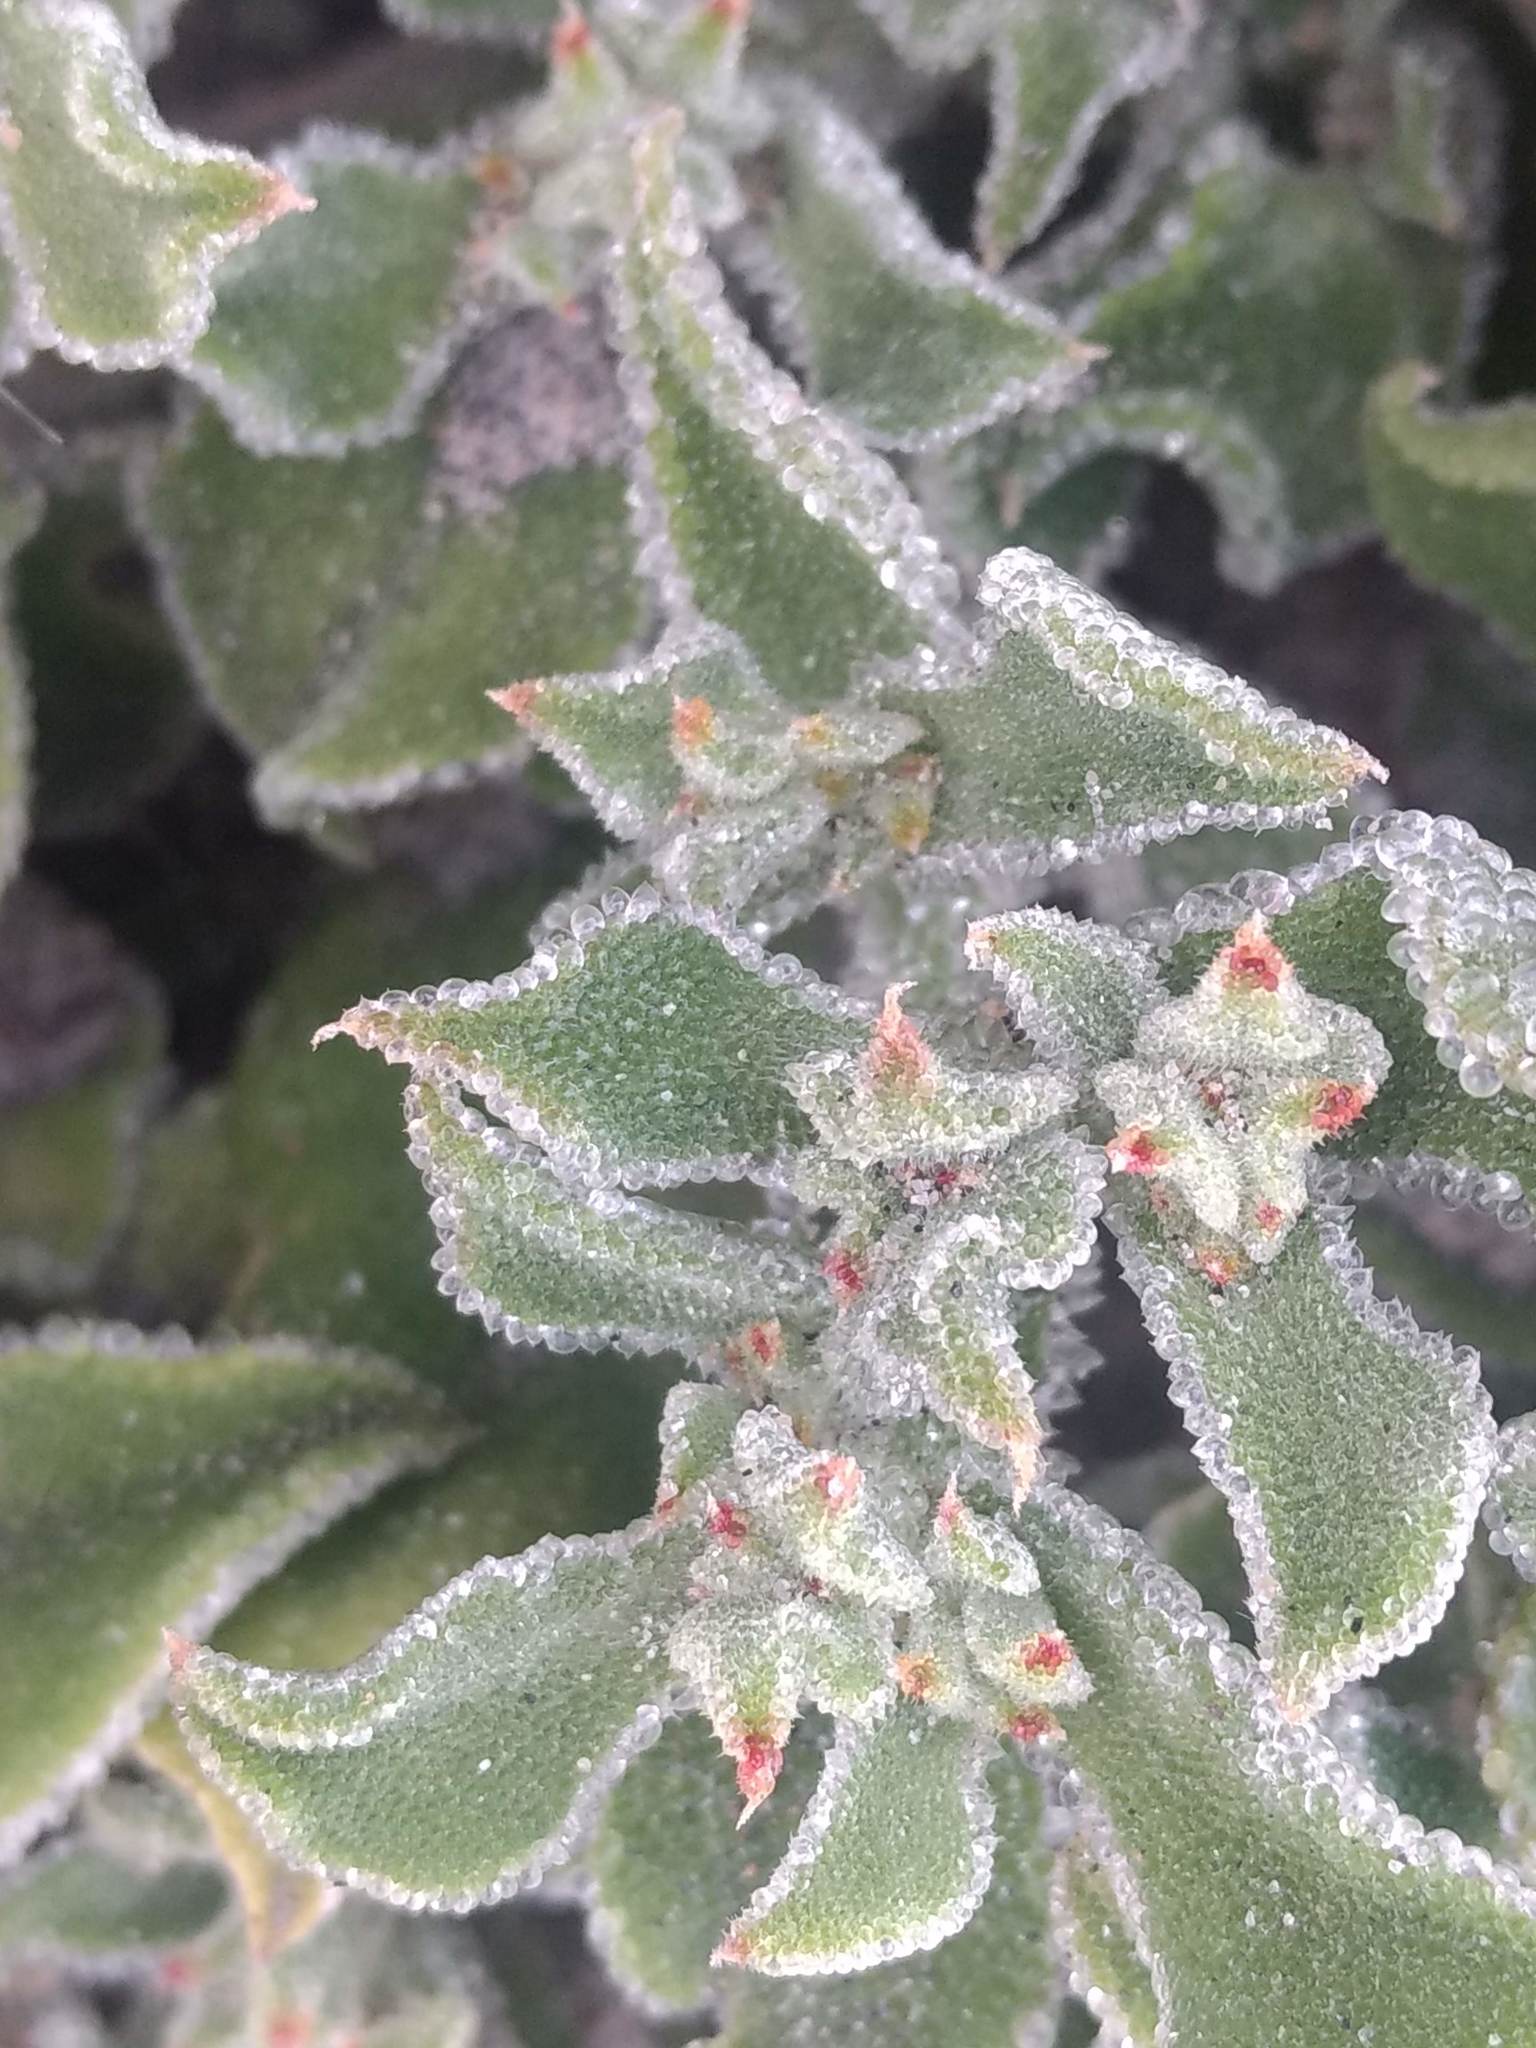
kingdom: Plantae
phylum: Tracheophyta
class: Magnoliopsida
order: Caryophyllales
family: Aizoaceae
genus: Mesembryanthemum
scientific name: Mesembryanthemum crystallinum
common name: Common iceplant
